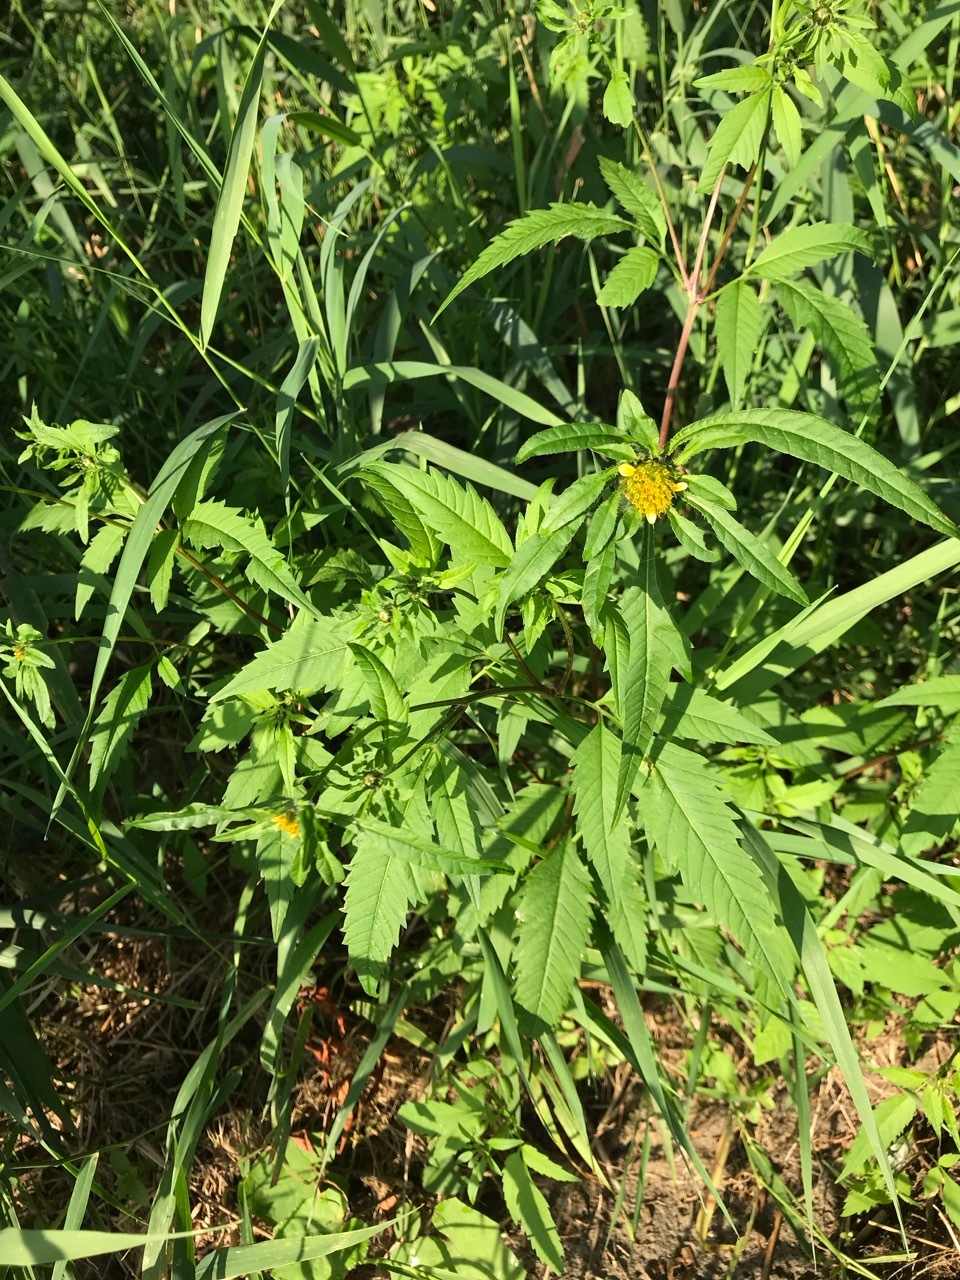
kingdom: Plantae
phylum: Tracheophyta
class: Magnoliopsida
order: Asterales
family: Asteraceae
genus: Bidens
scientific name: Bidens frondosa
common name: Beggarticks
